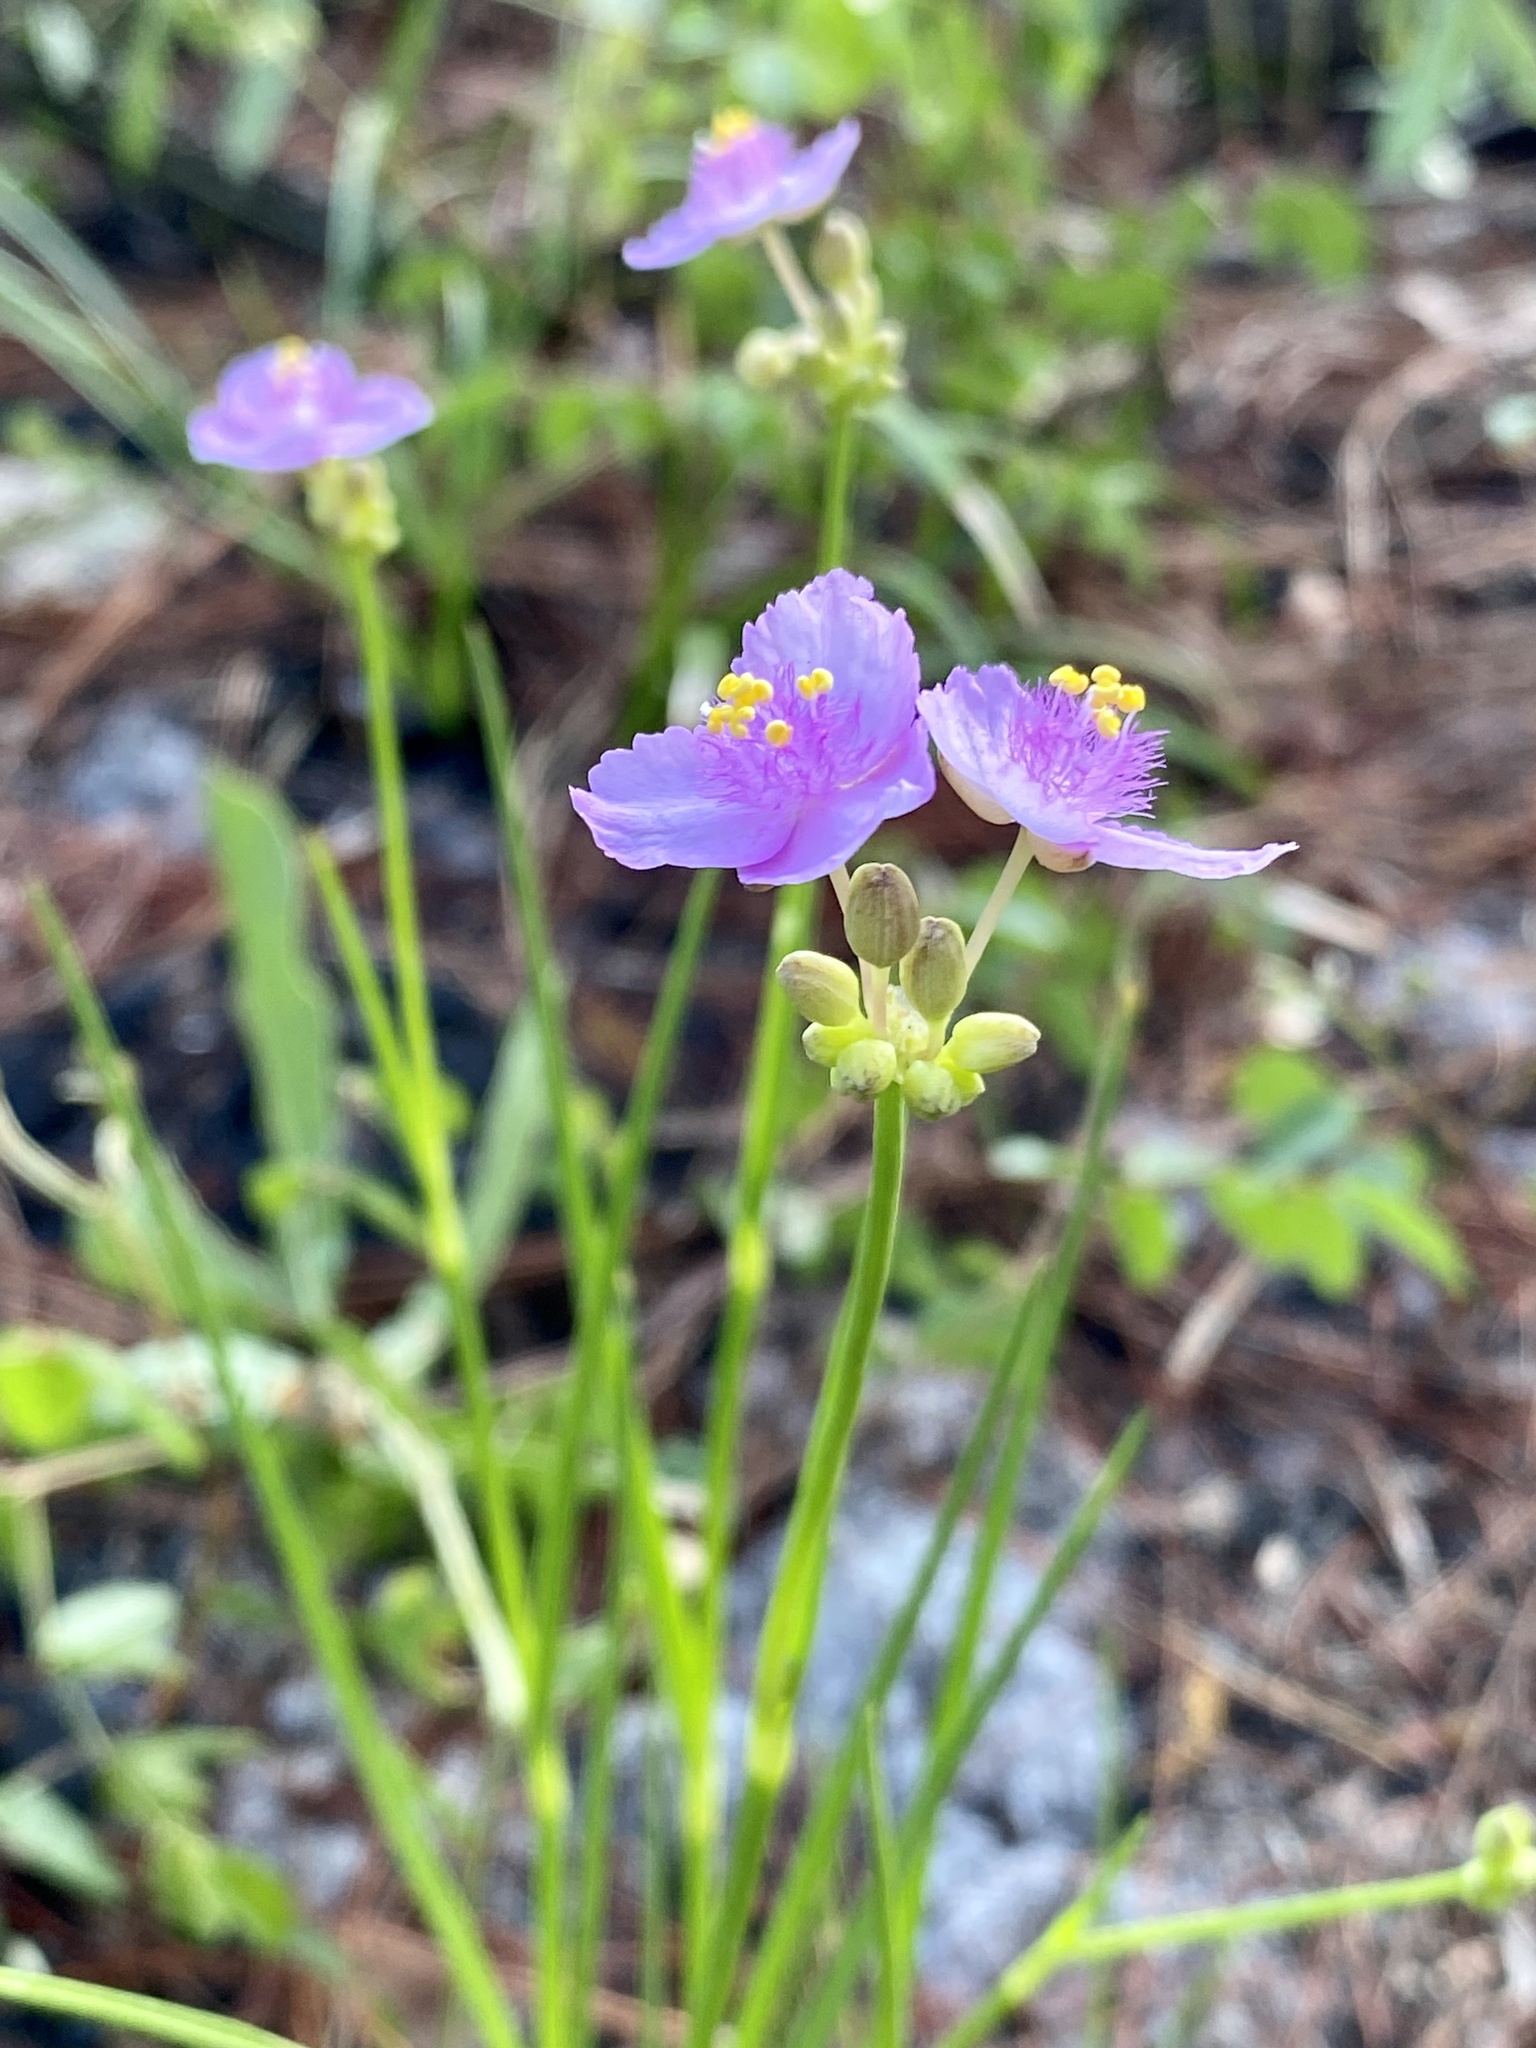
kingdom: Plantae
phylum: Tracheophyta
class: Liliopsida
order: Commelinales
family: Commelinaceae
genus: Callisia
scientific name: Callisia ornata
